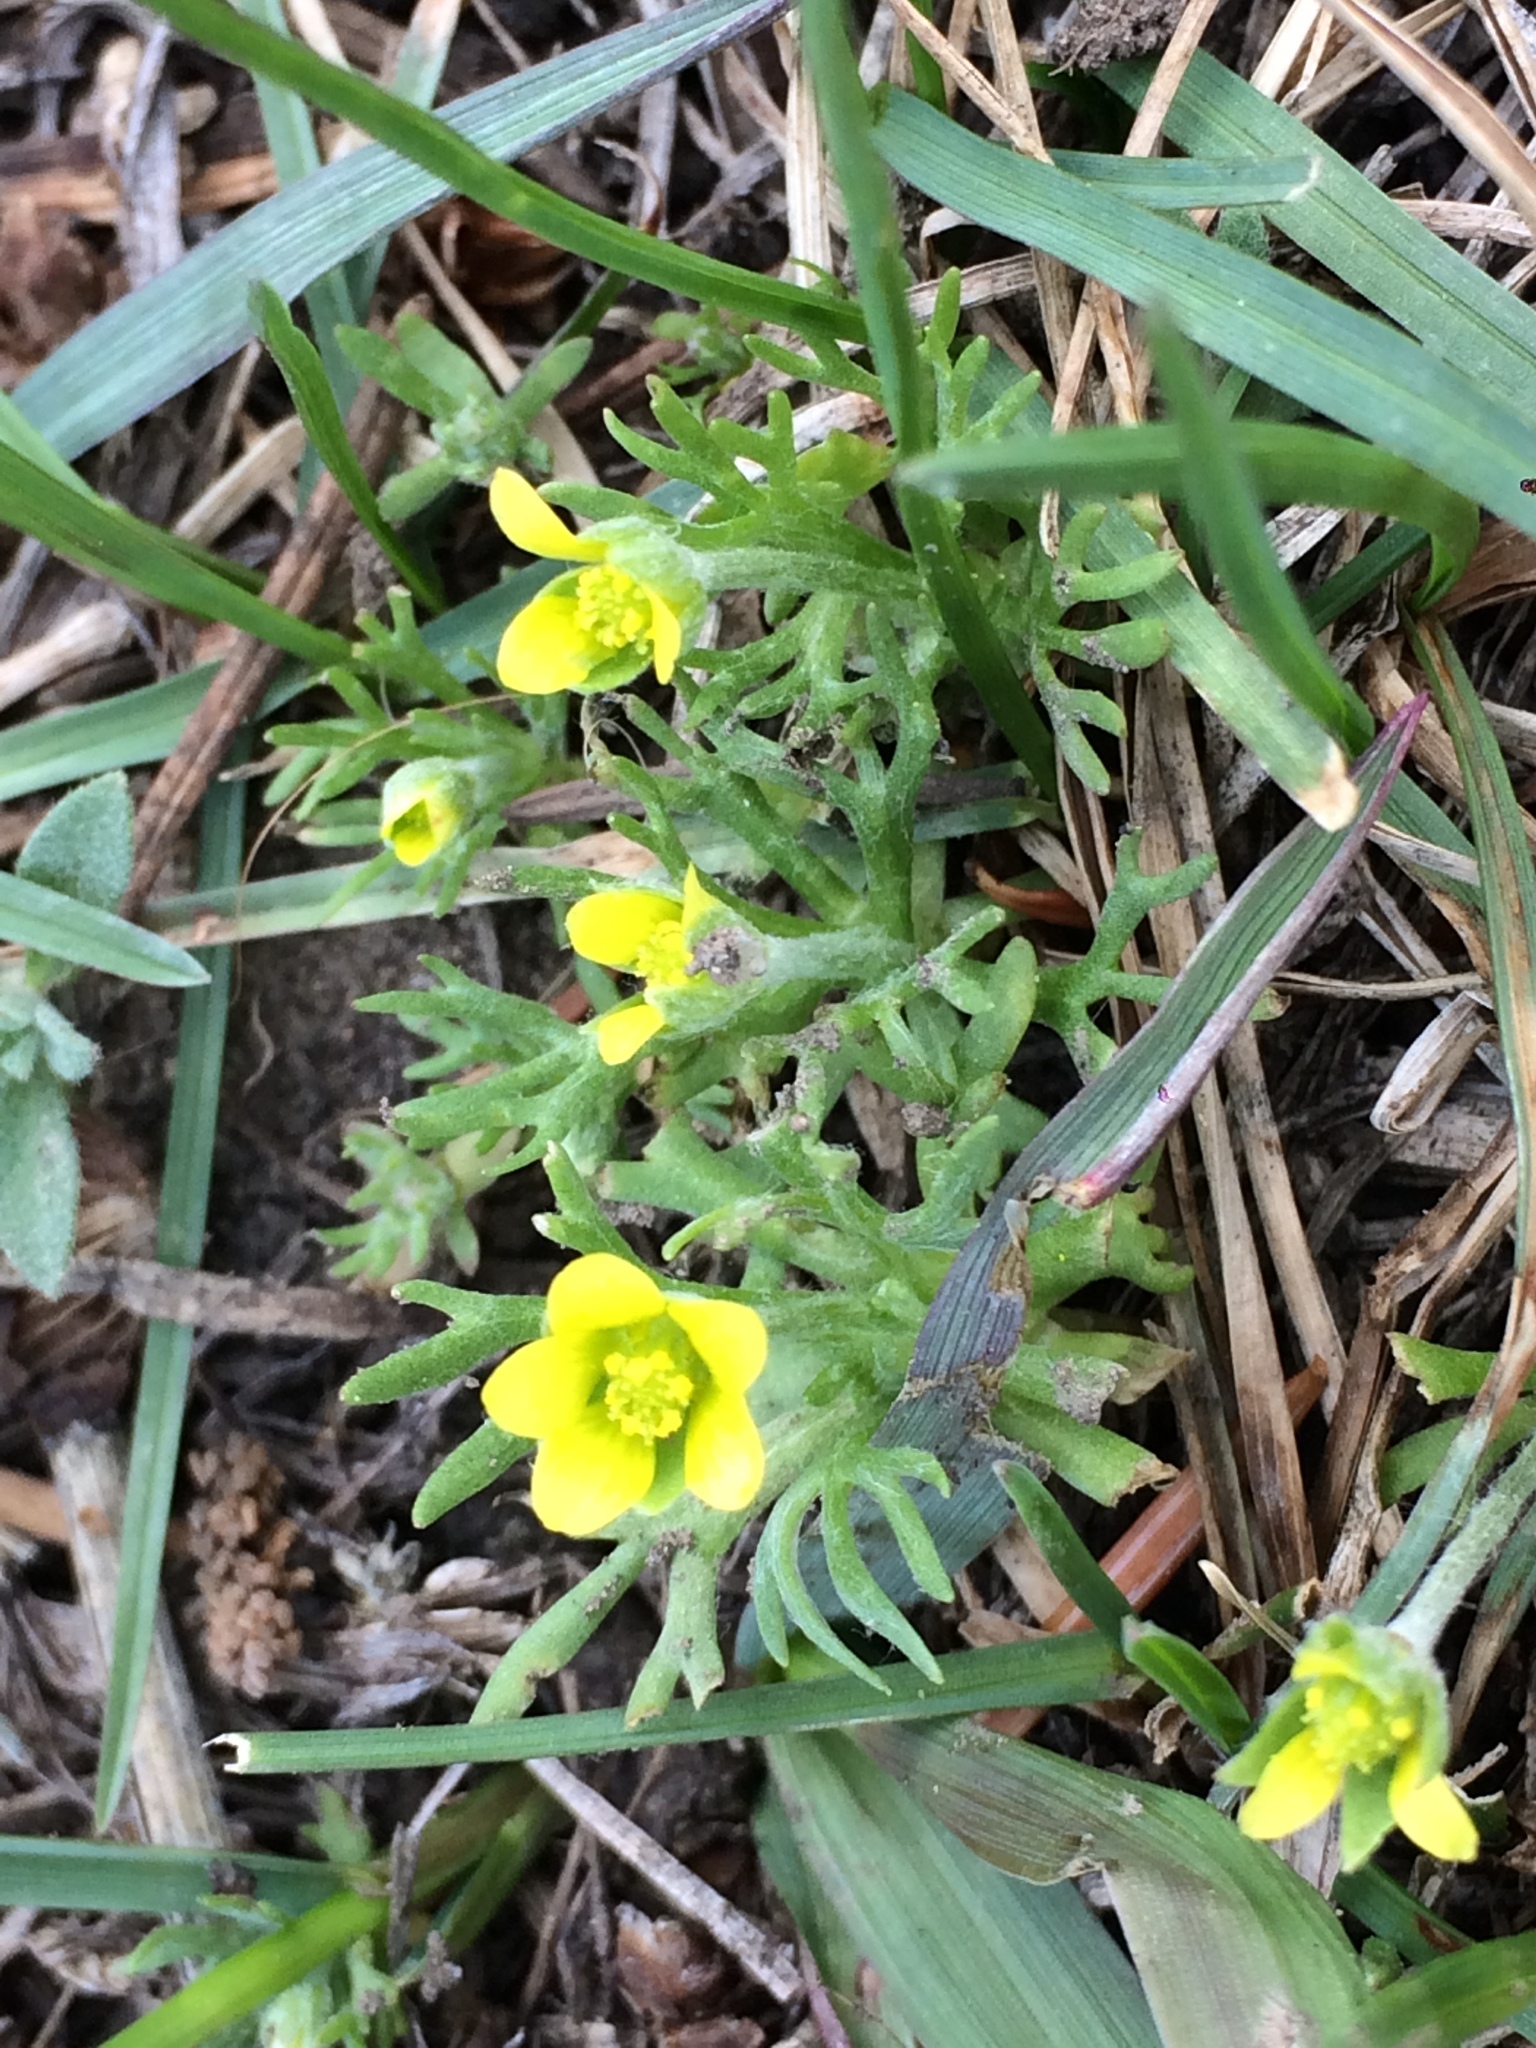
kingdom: Plantae
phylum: Tracheophyta
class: Magnoliopsida
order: Ranunculales
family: Ranunculaceae
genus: Ceratocephala
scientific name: Ceratocephala orthoceras
